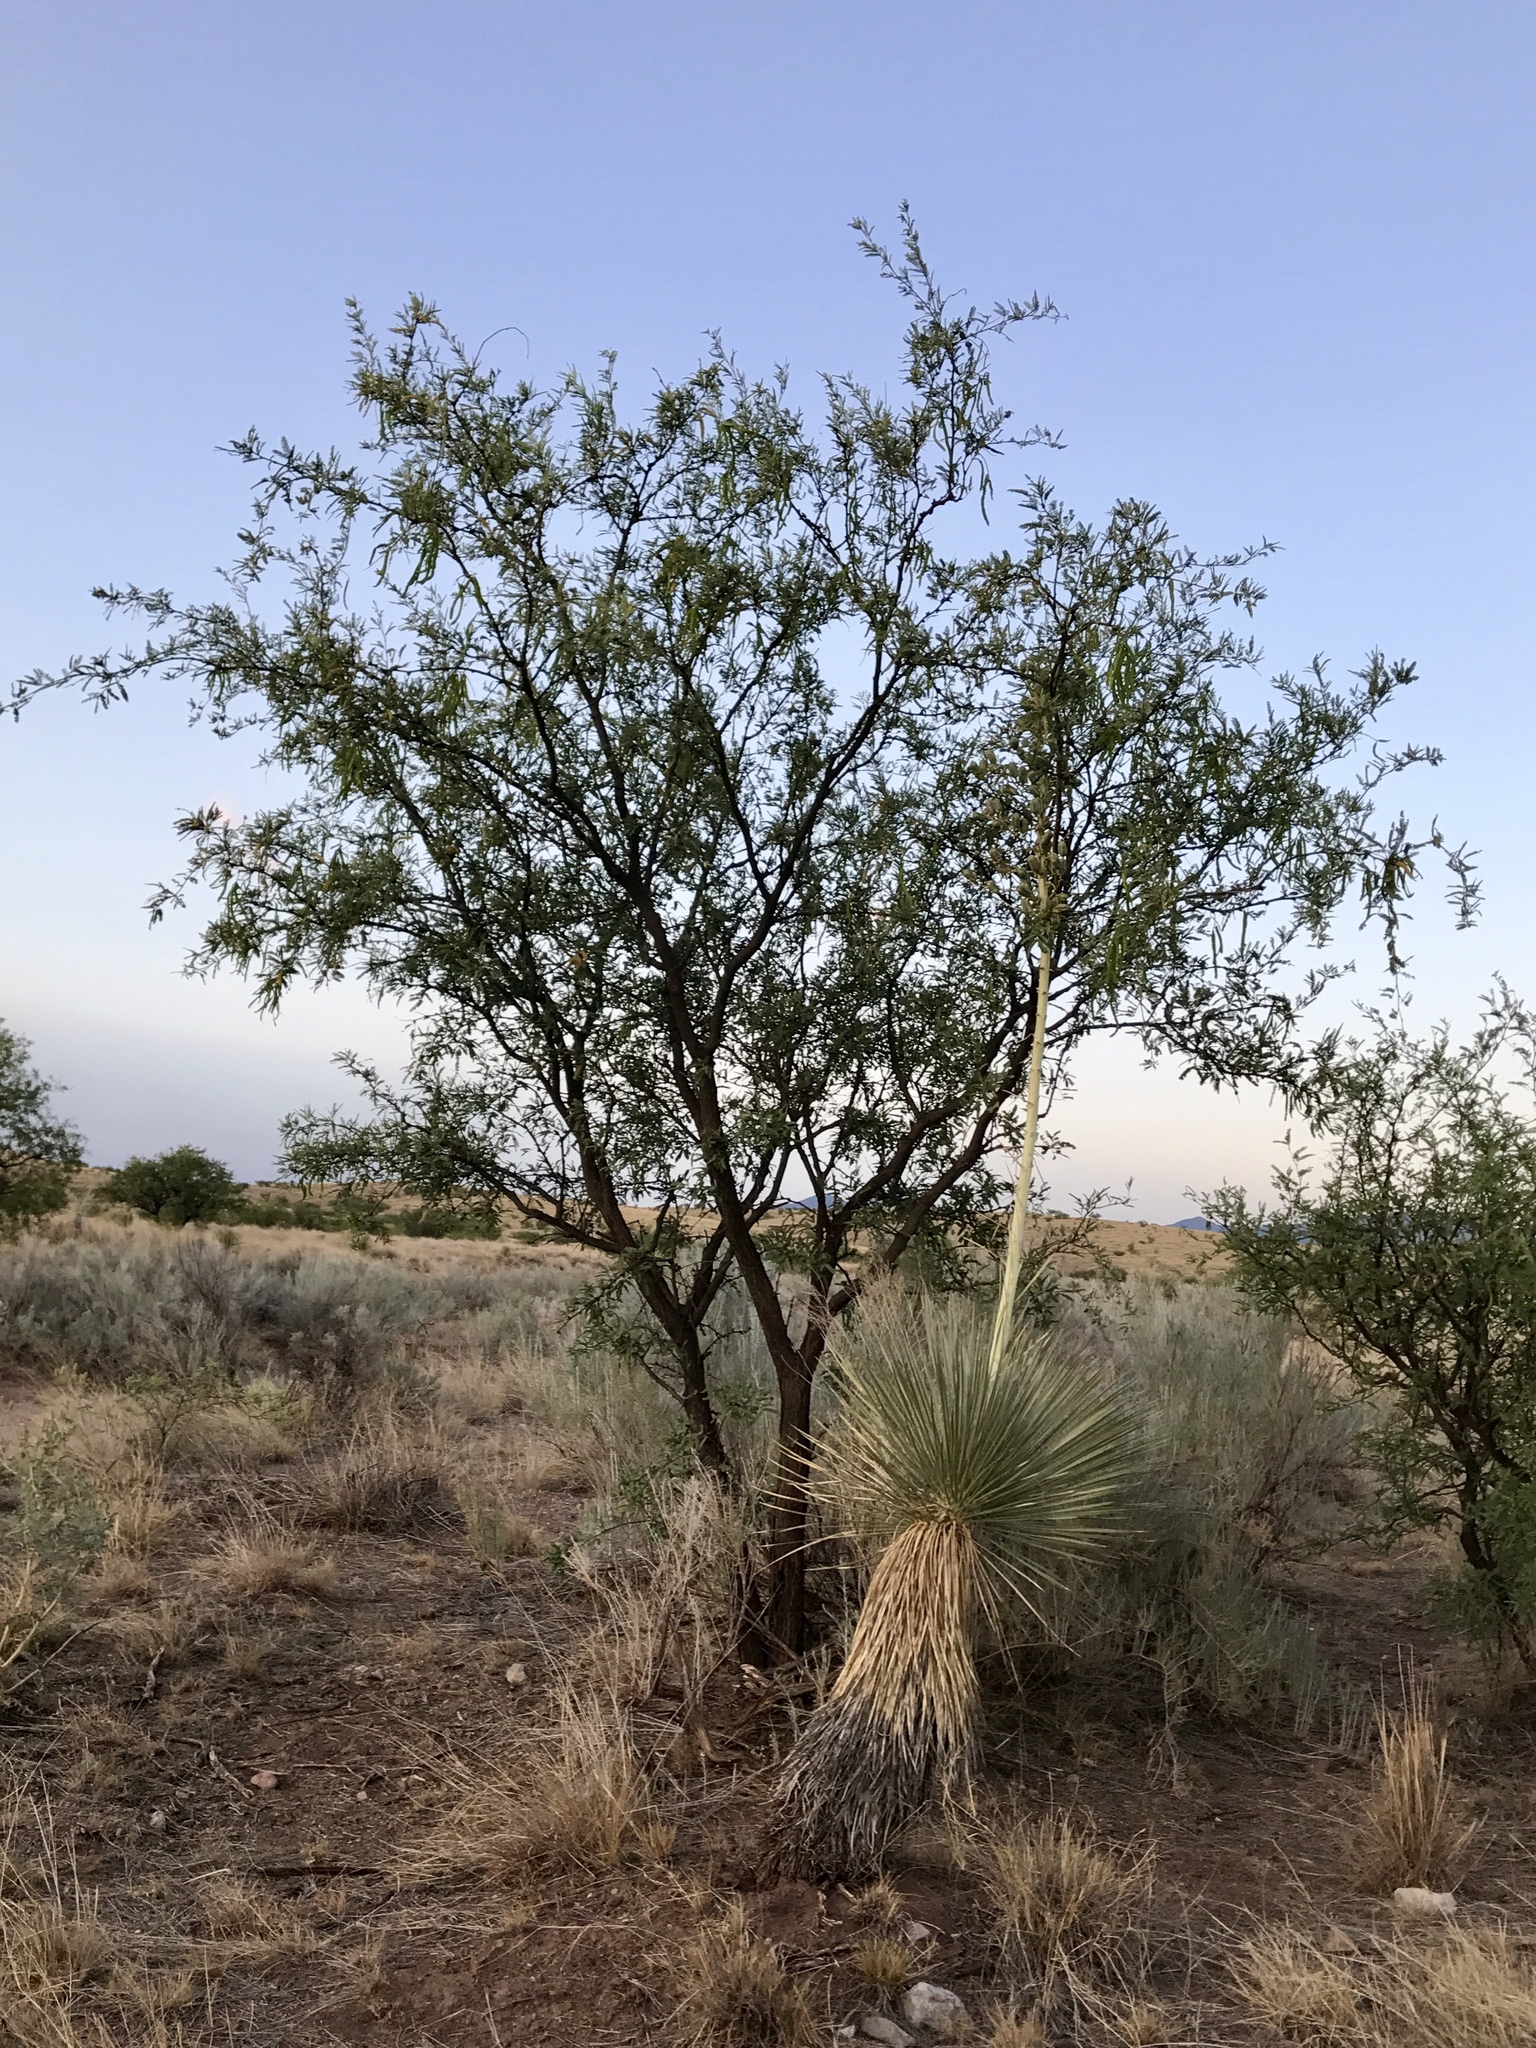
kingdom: Plantae
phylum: Tracheophyta
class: Magnoliopsida
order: Fabales
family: Fabaceae
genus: Prosopis
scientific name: Prosopis velutina
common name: Velvet mesquite
